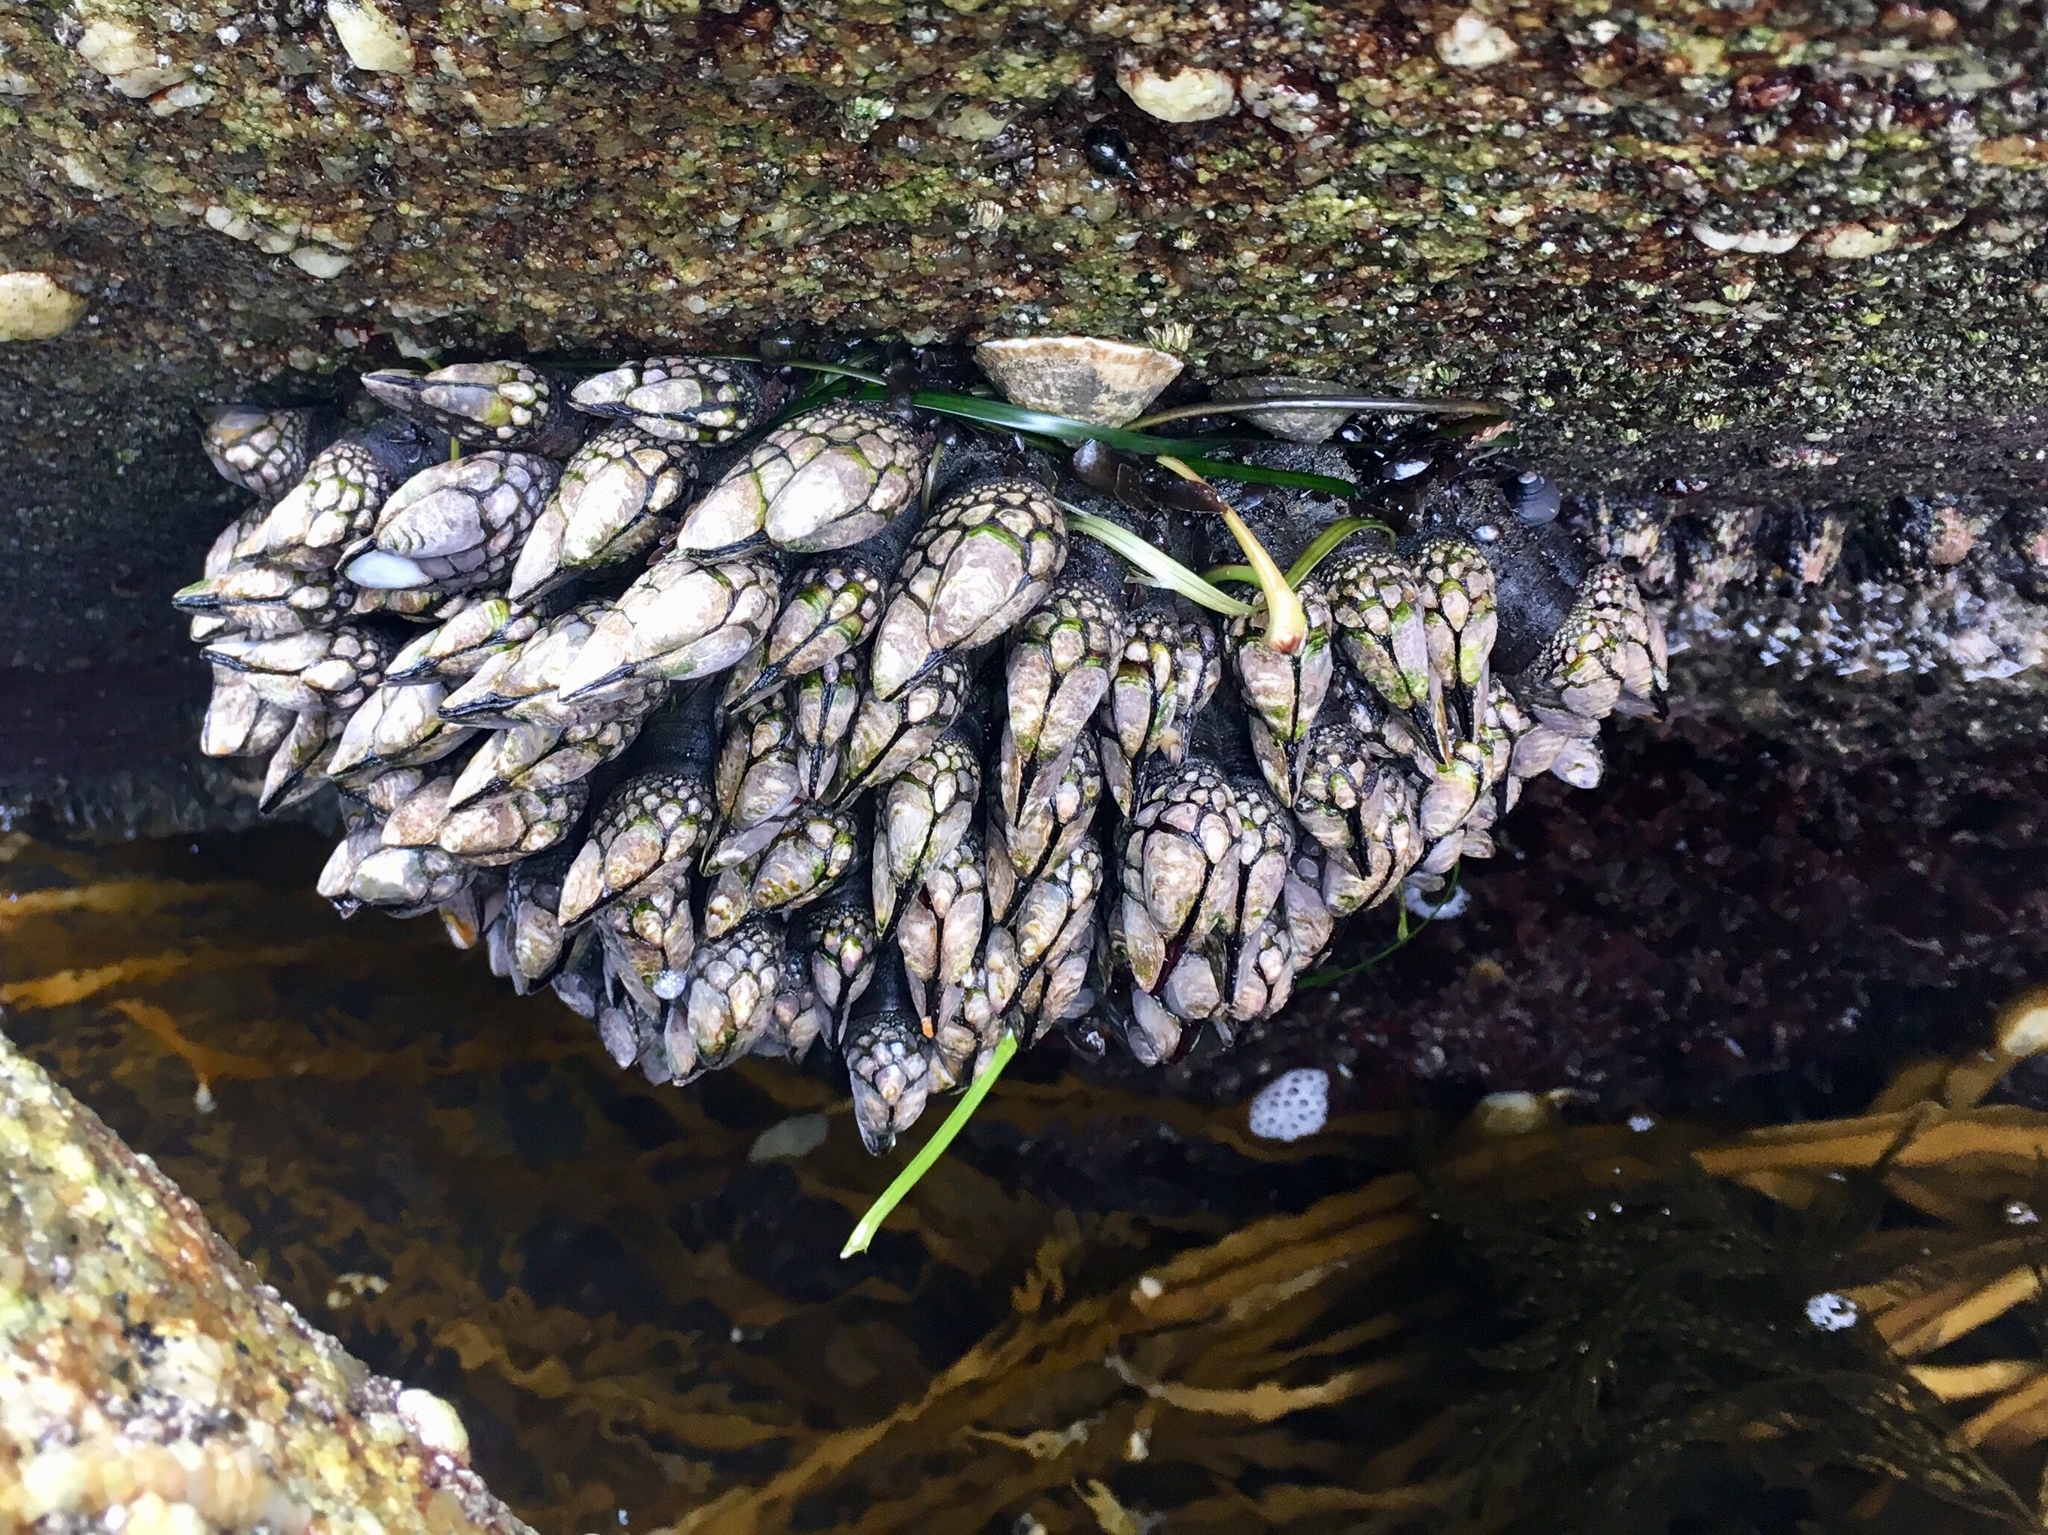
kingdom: Animalia
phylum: Arthropoda
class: Maxillopoda
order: Pedunculata
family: Pollicipedidae
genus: Pollicipes
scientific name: Pollicipes polymerus
